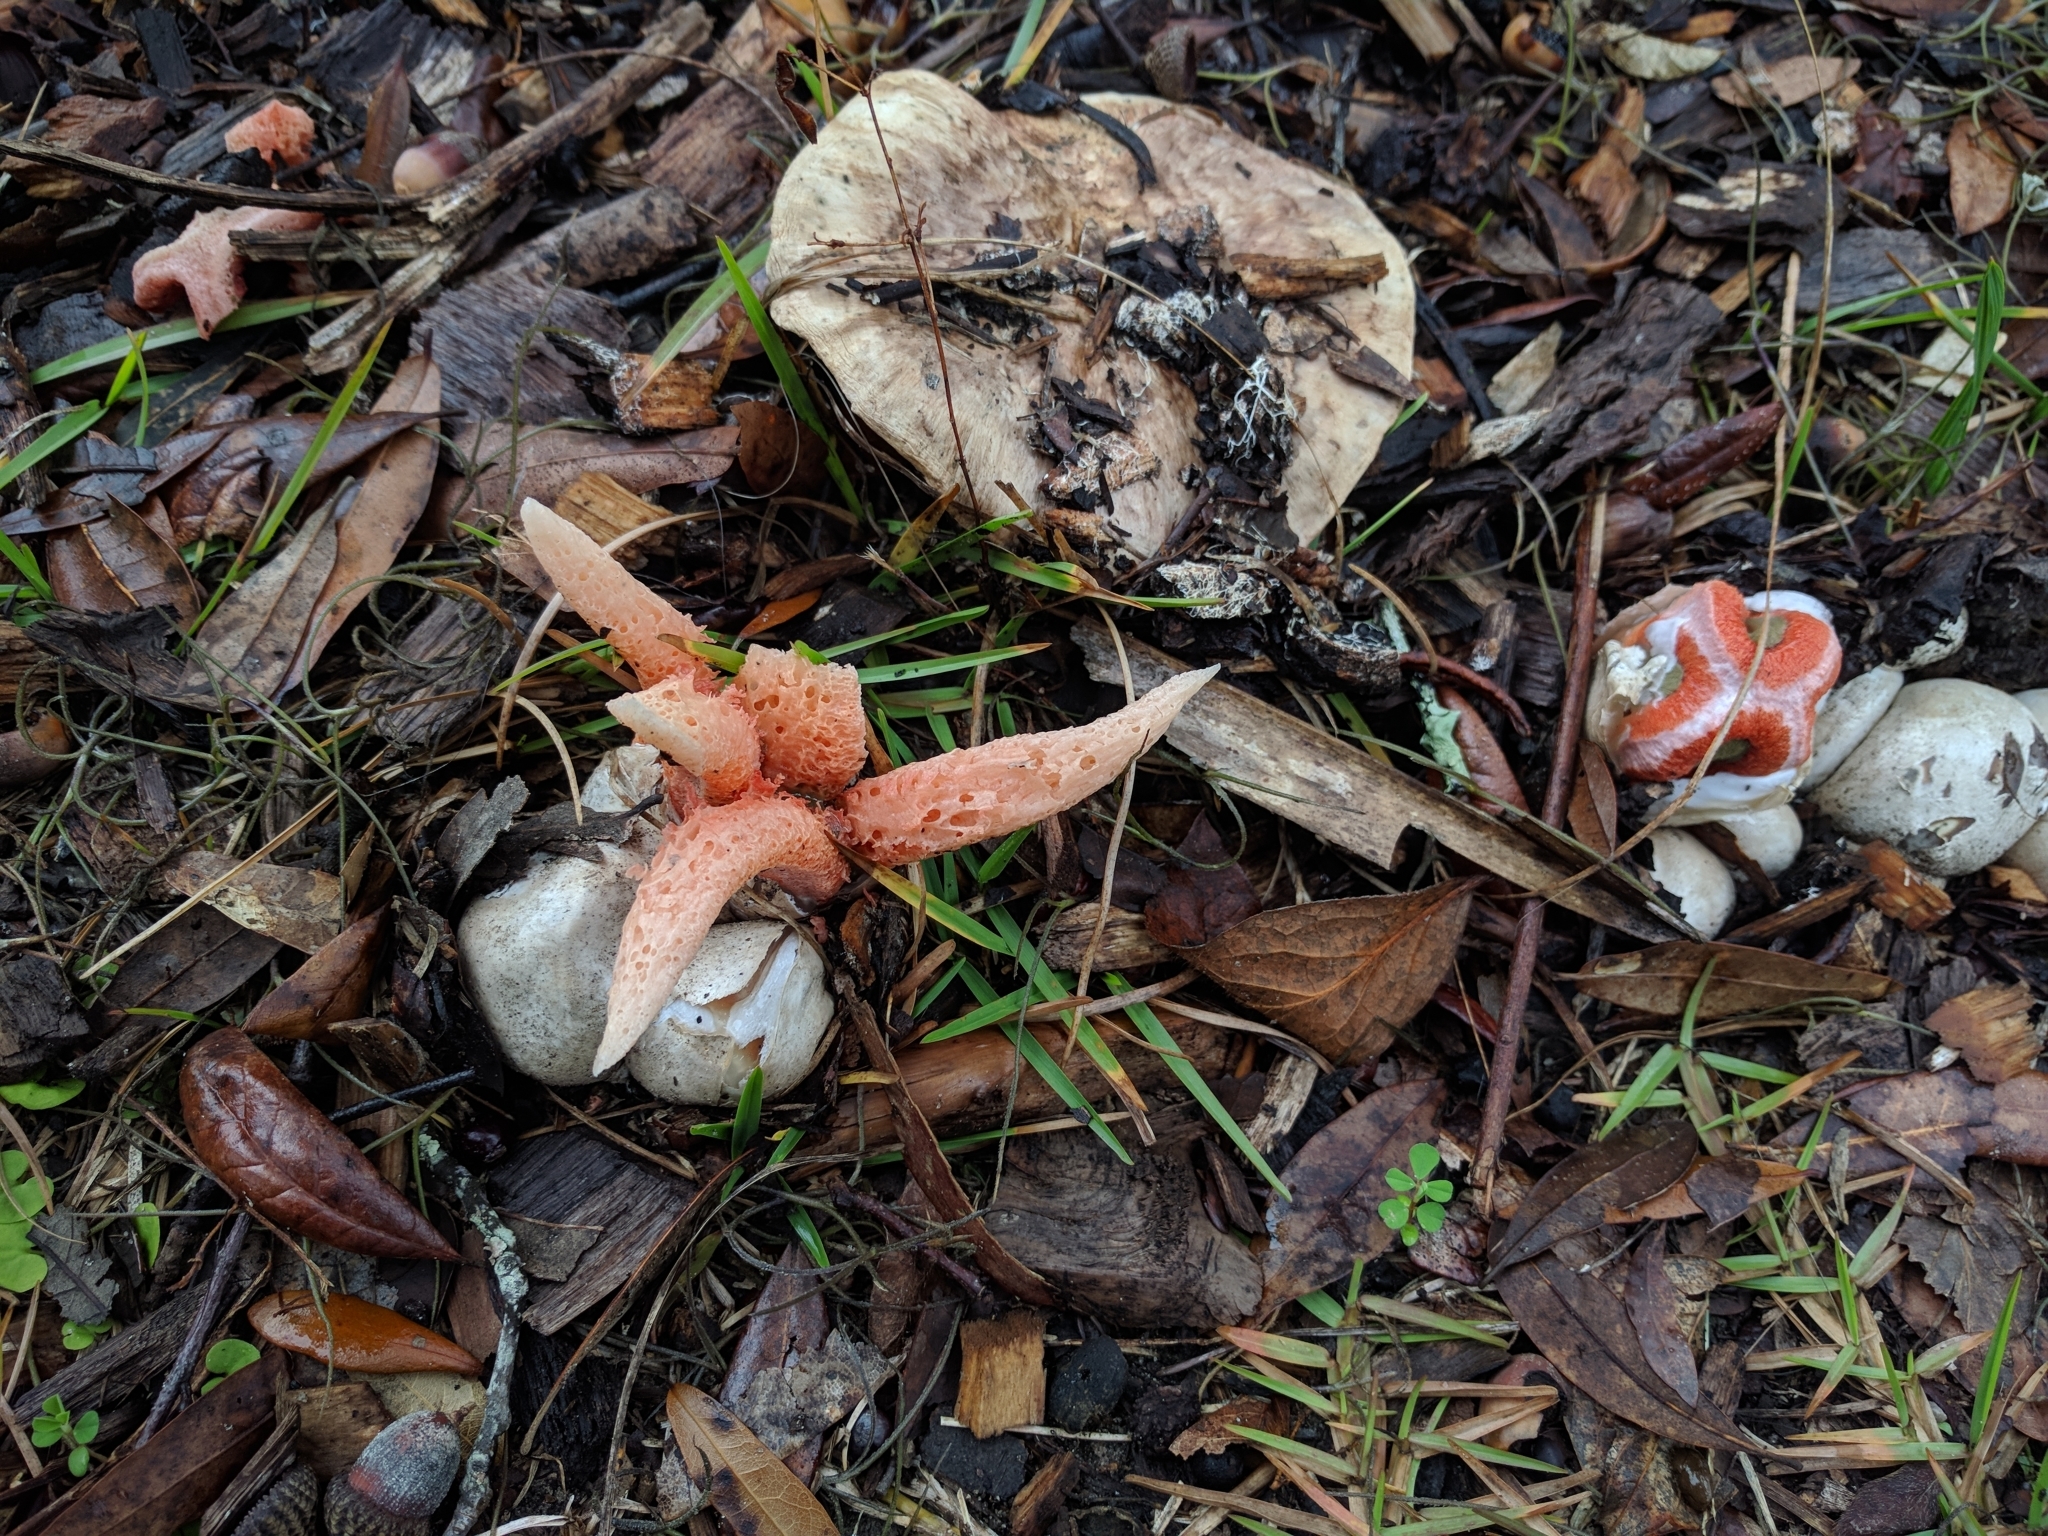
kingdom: Fungi
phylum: Basidiomycota
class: Agaricomycetes
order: Phallales
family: Phallaceae
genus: Clathrus
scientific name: Clathrus columnatus
